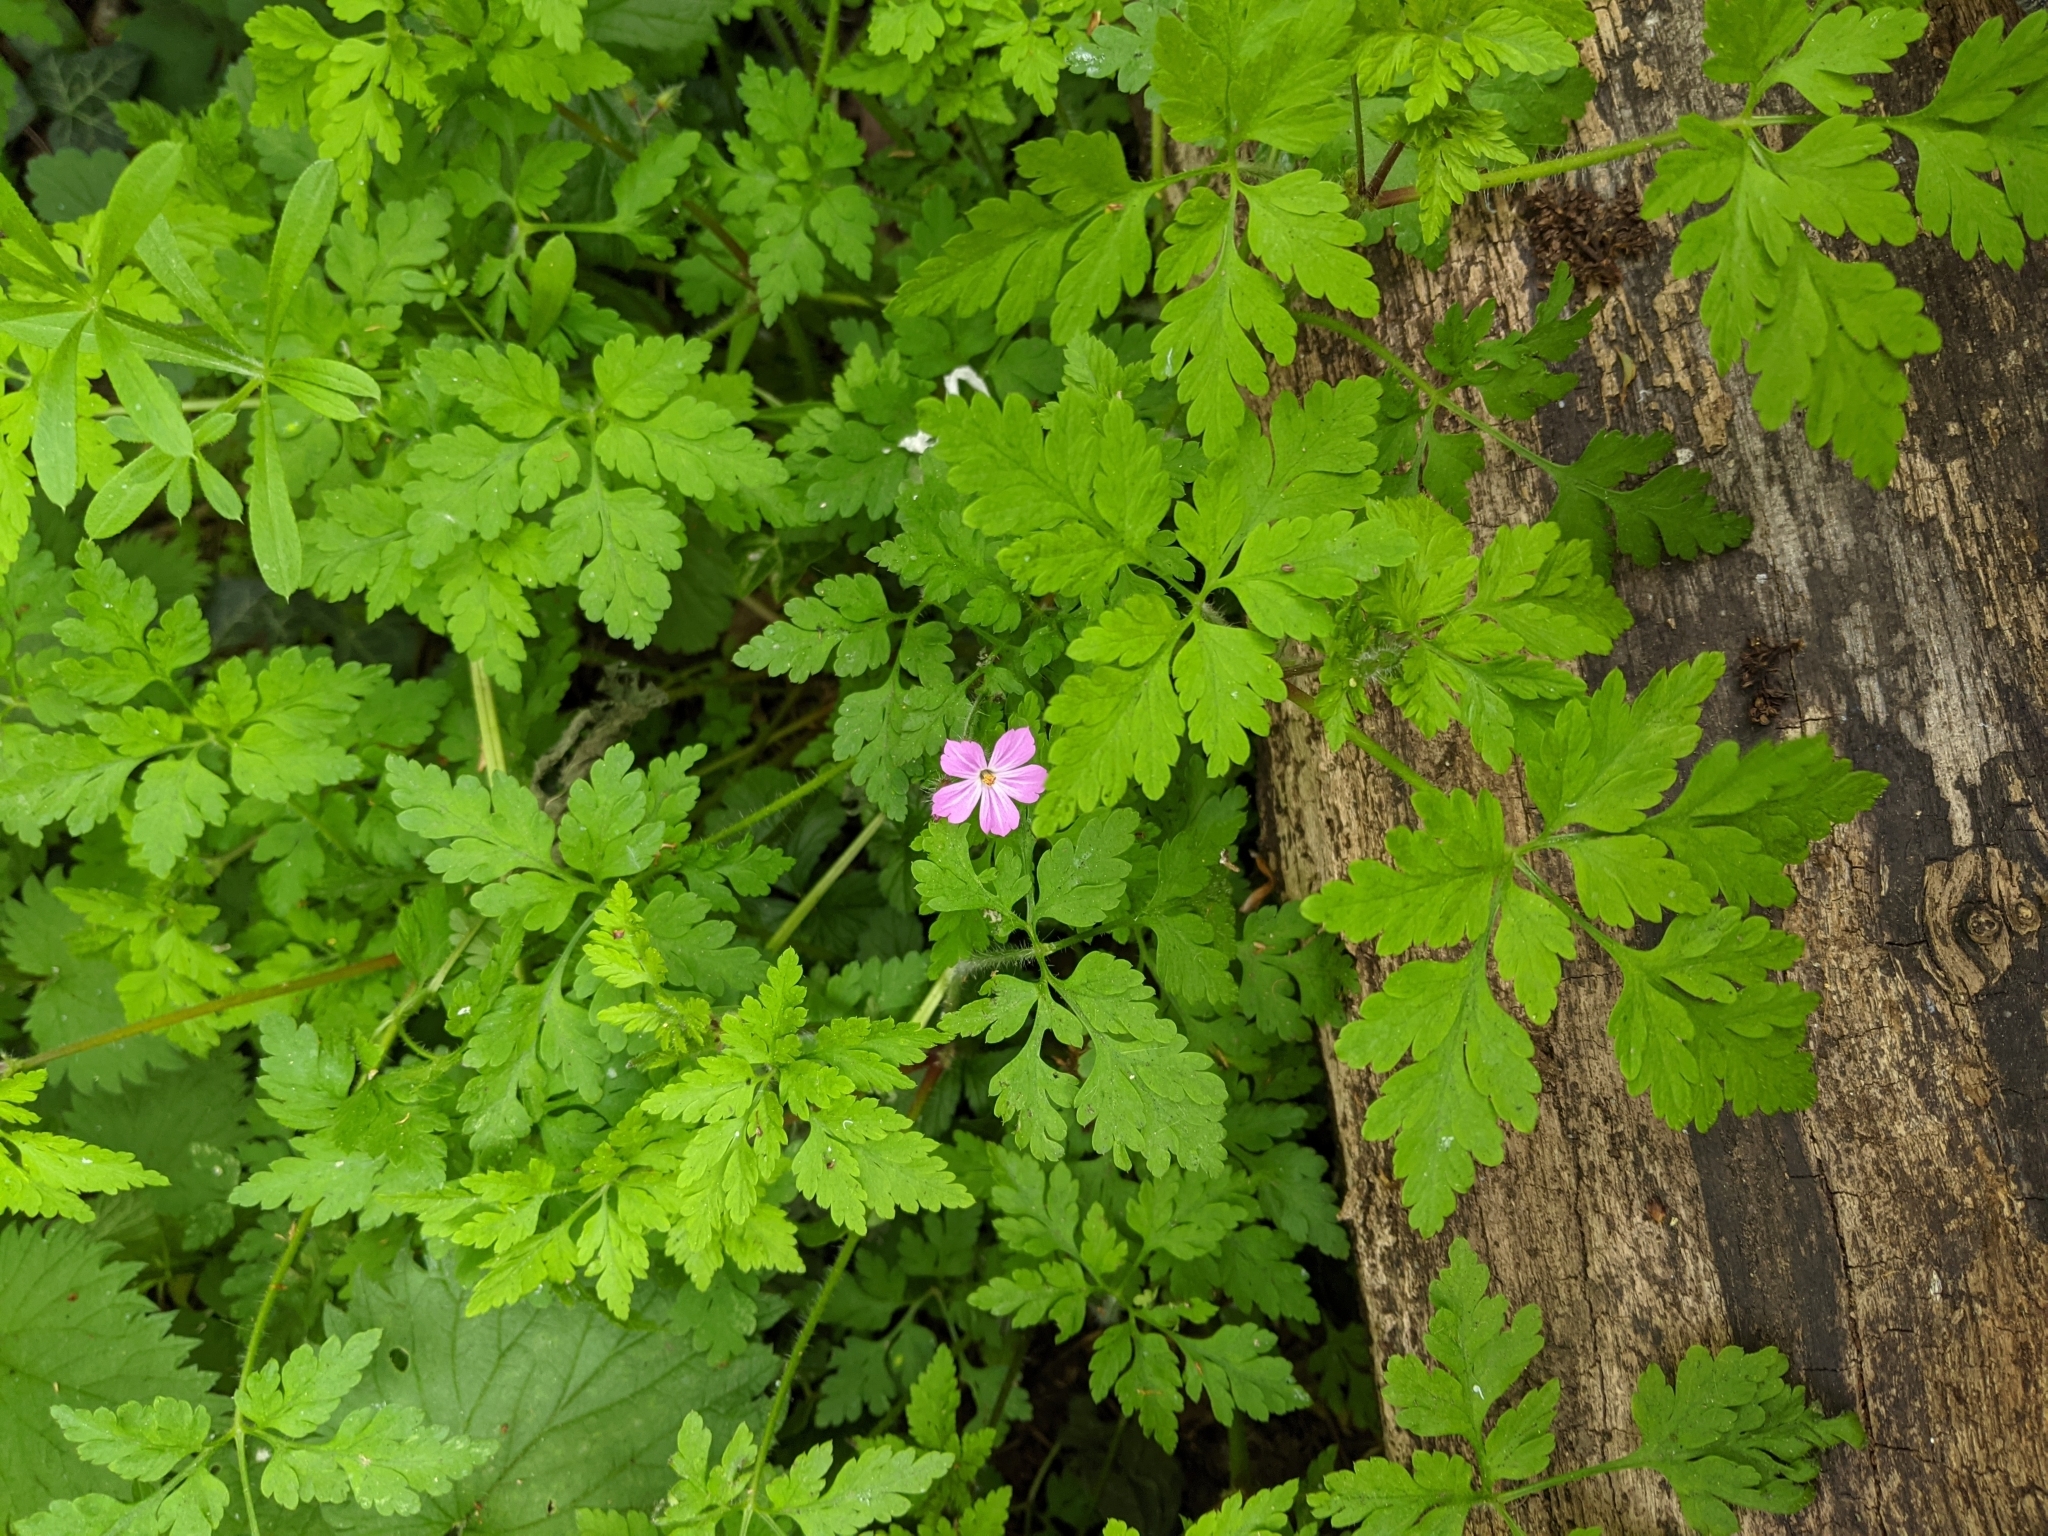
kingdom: Plantae
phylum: Tracheophyta
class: Magnoliopsida
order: Geraniales
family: Geraniaceae
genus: Geranium
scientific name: Geranium robertianum
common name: Herb-robert
